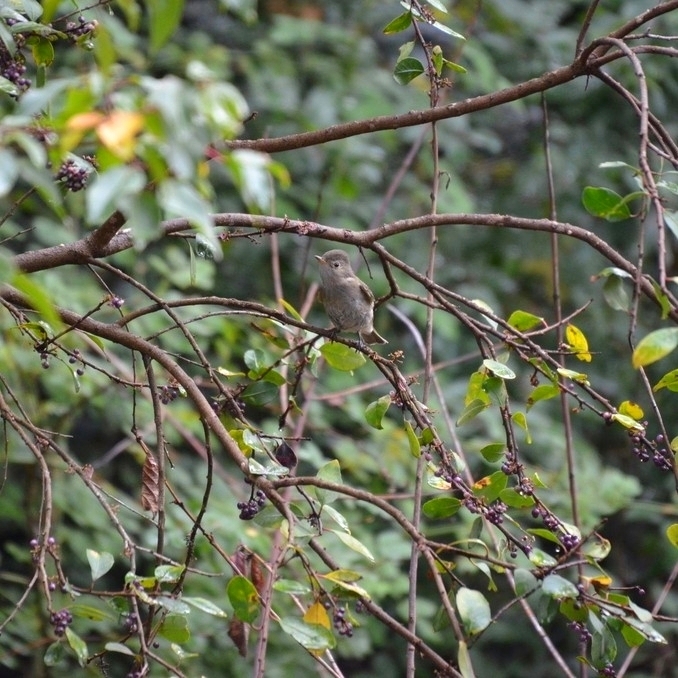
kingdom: Animalia
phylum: Chordata
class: Aves
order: Passeriformes
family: Tyrannidae
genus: Elaenia
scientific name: Elaenia albiceps
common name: White-crested elaenia
